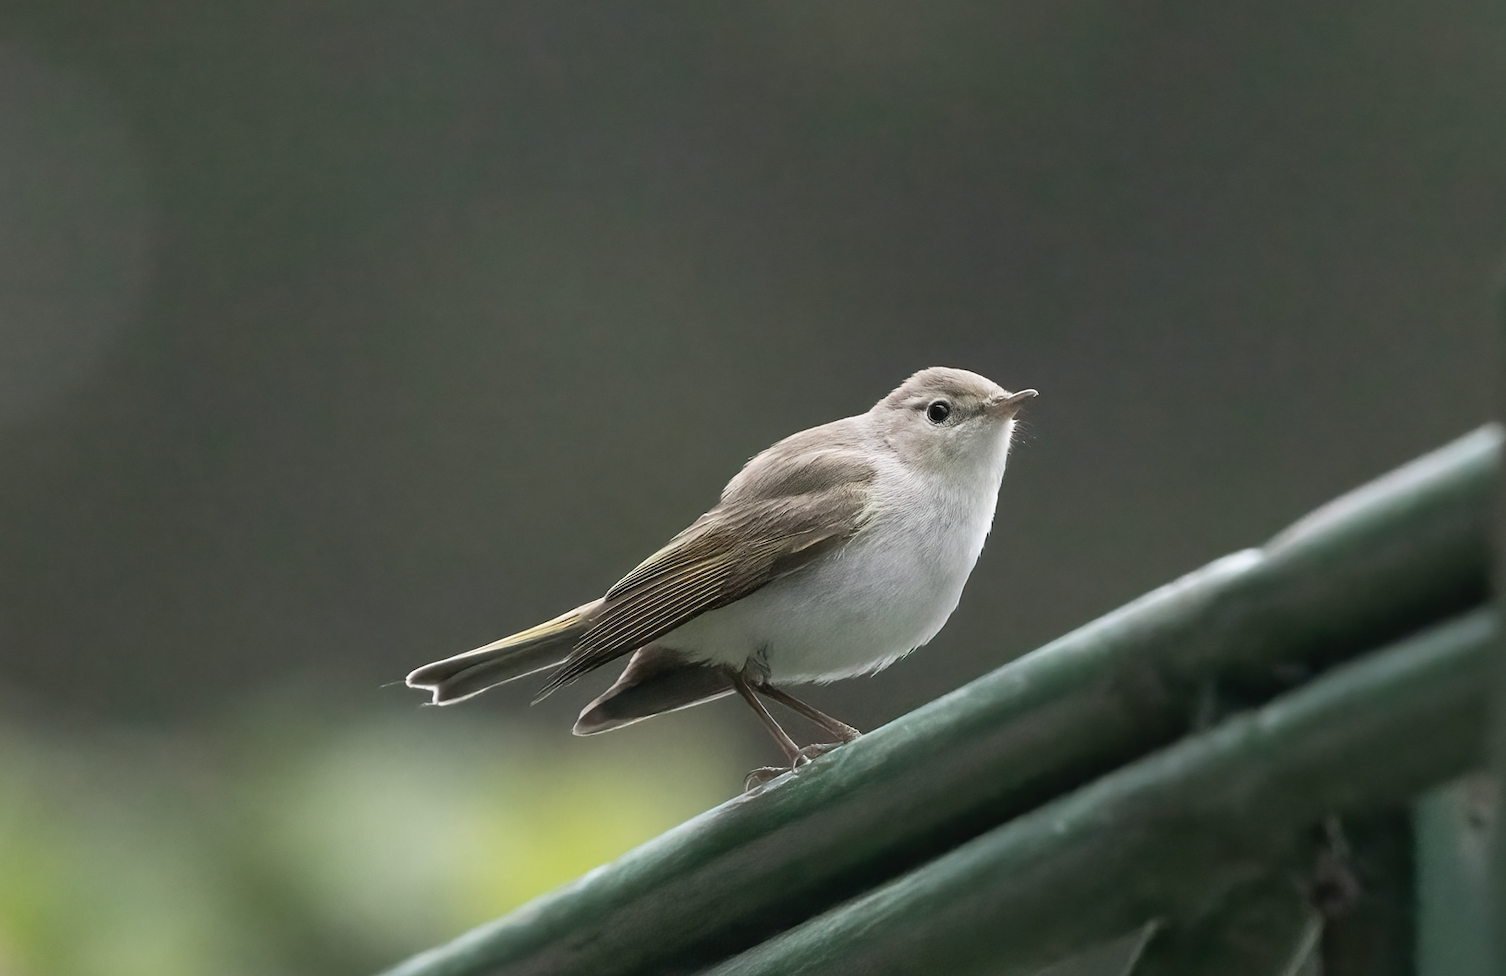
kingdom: Animalia
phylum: Chordata
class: Aves
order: Passeriformes
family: Phylloscopidae
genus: Phylloscopus
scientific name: Phylloscopus bonelli
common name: Western bonelli's warbler
